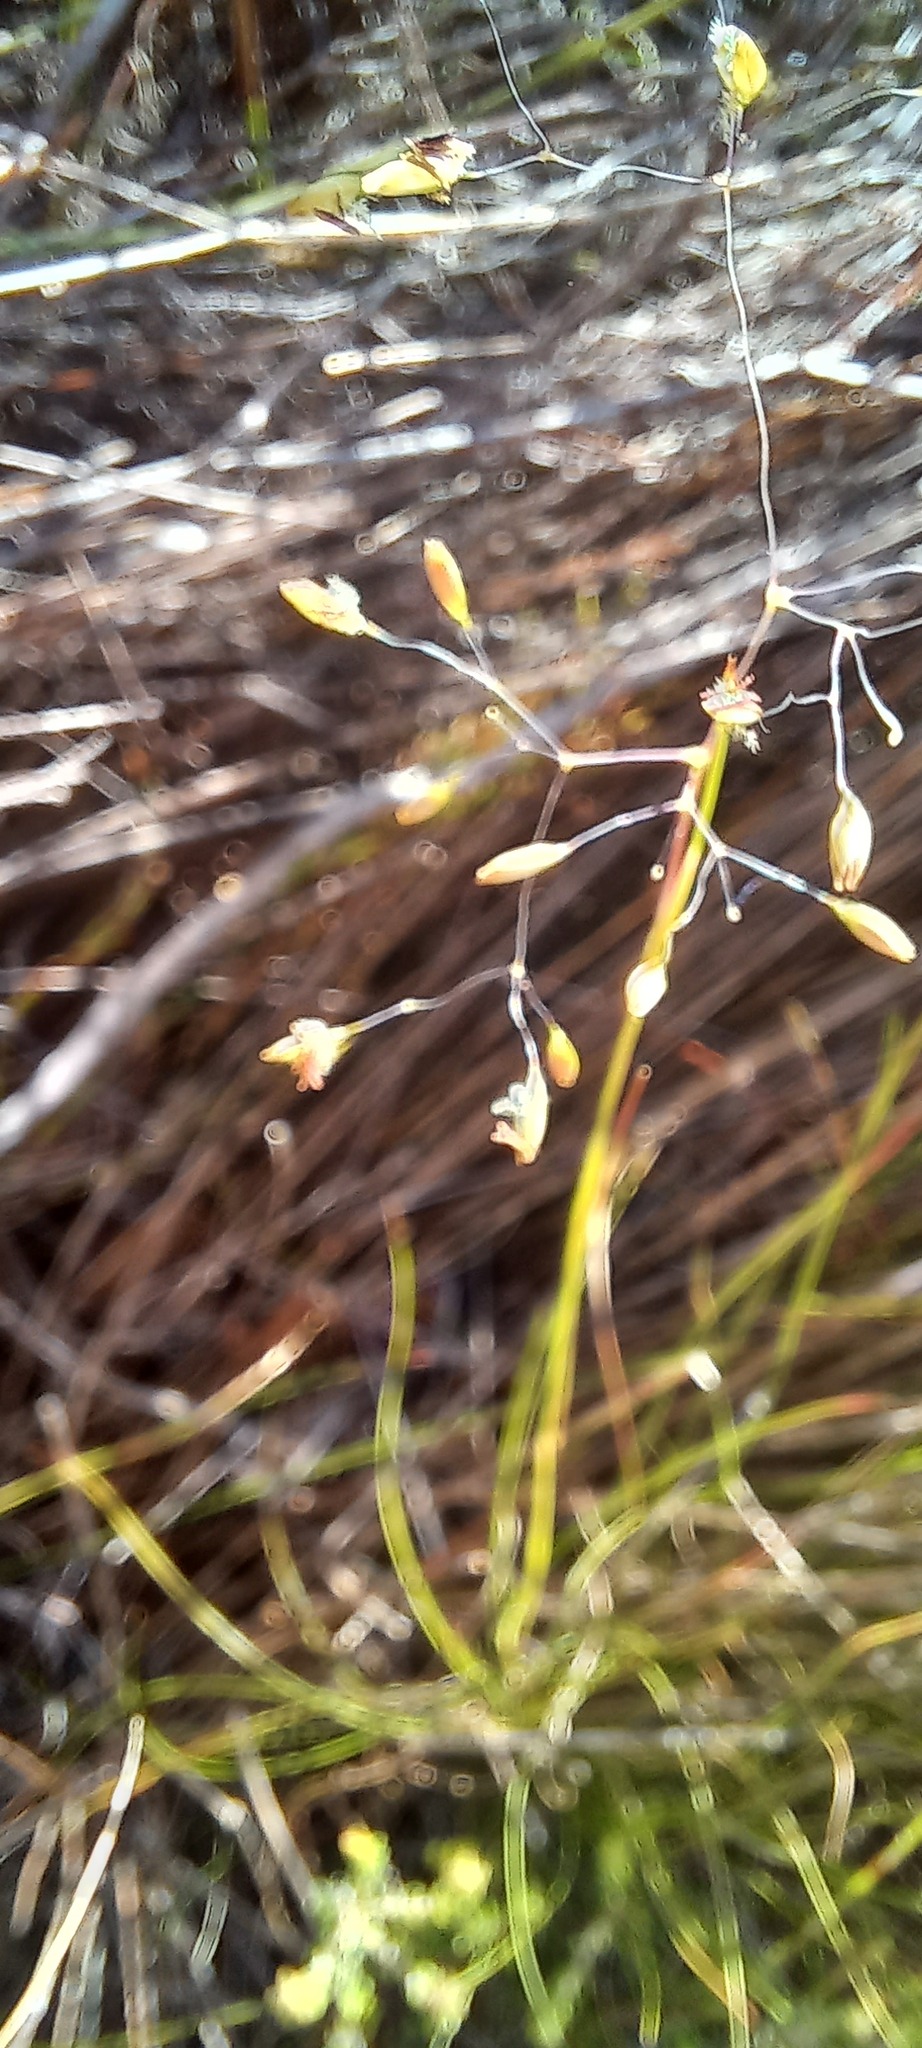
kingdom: Plantae
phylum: Tracheophyta
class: Liliopsida
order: Poales
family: Poaceae
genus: Pentameris
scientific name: Pentameris holciformis
